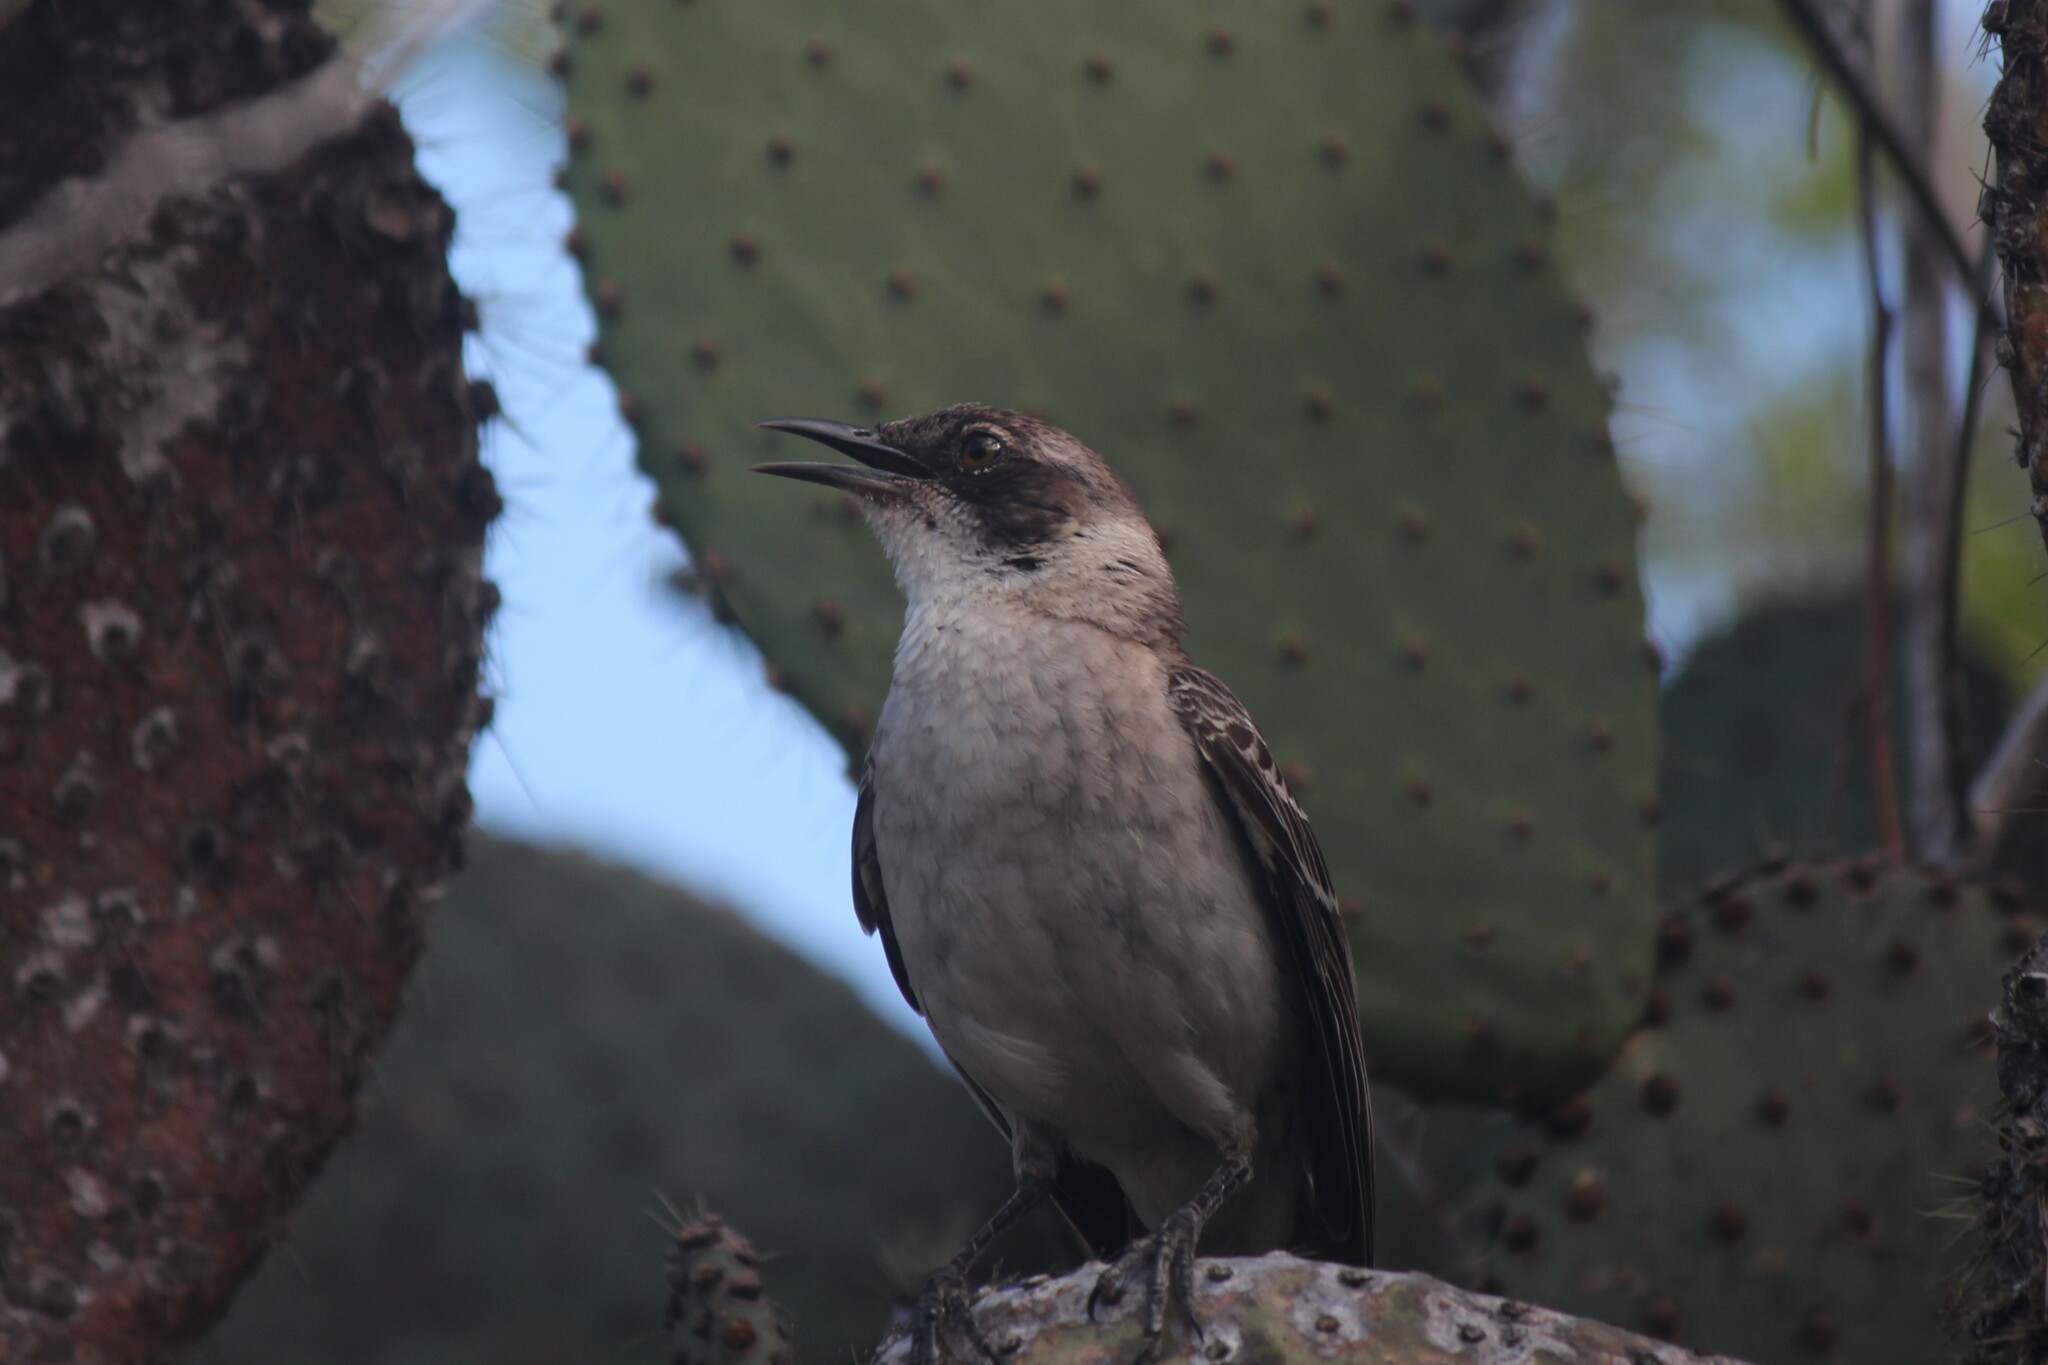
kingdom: Animalia
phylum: Chordata
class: Aves
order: Passeriformes
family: Mimidae
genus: Mimus
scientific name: Mimus parvulus
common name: Galapagos mockingbird
